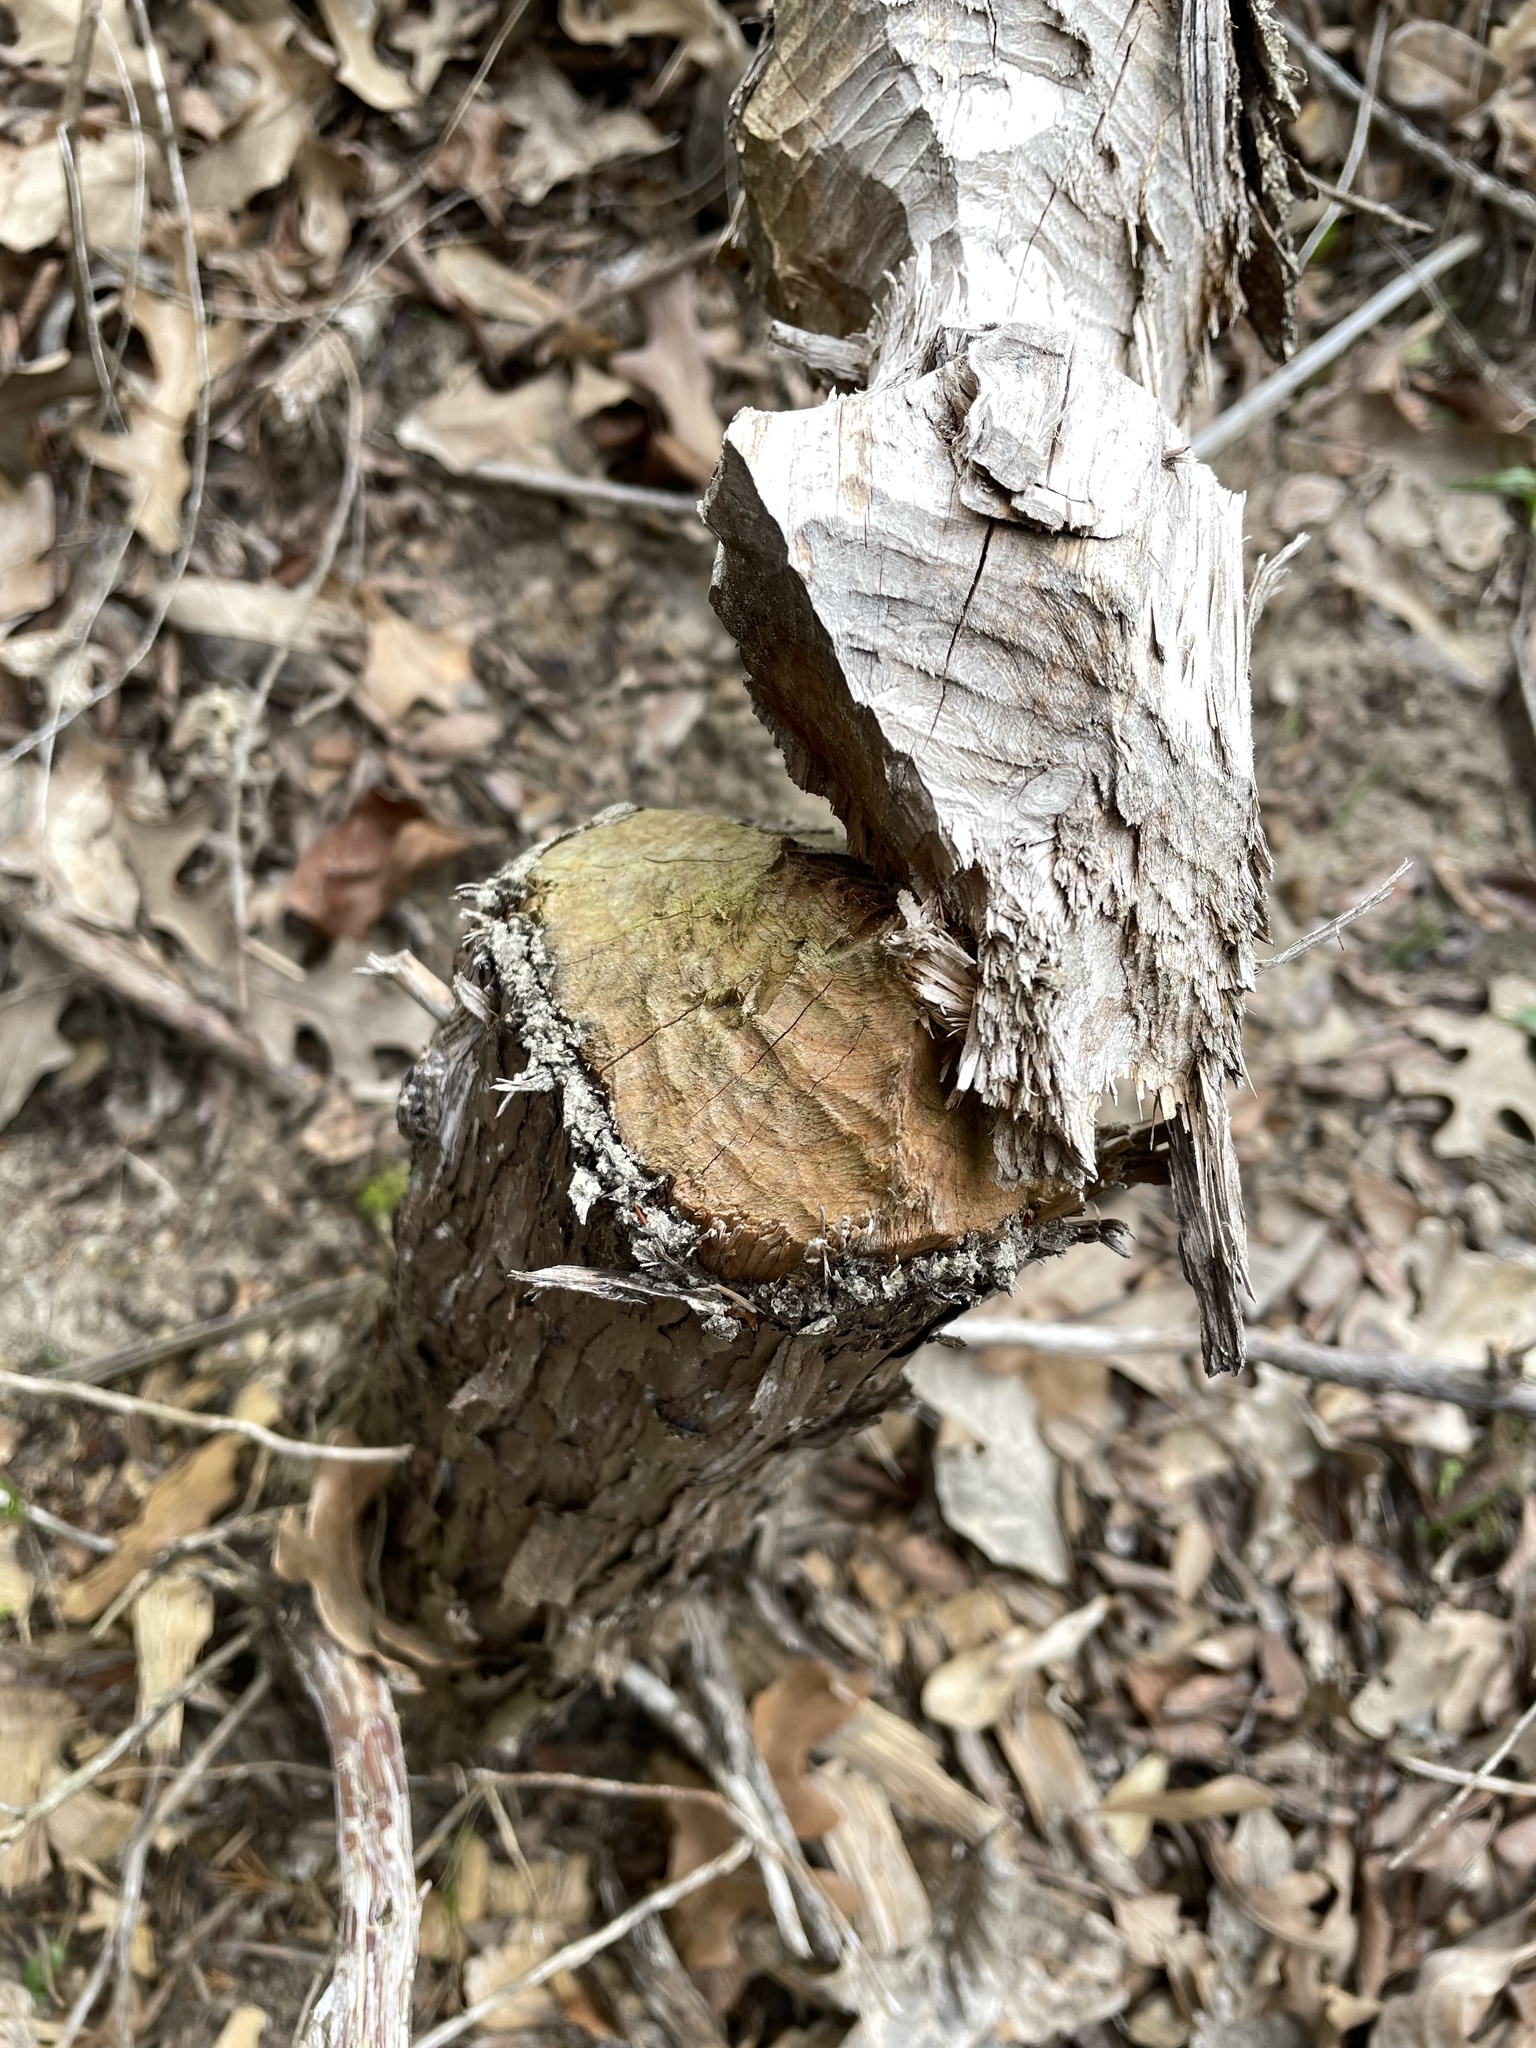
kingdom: Animalia
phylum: Chordata
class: Mammalia
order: Rodentia
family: Castoridae
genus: Castor
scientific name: Castor canadensis
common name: American beaver
